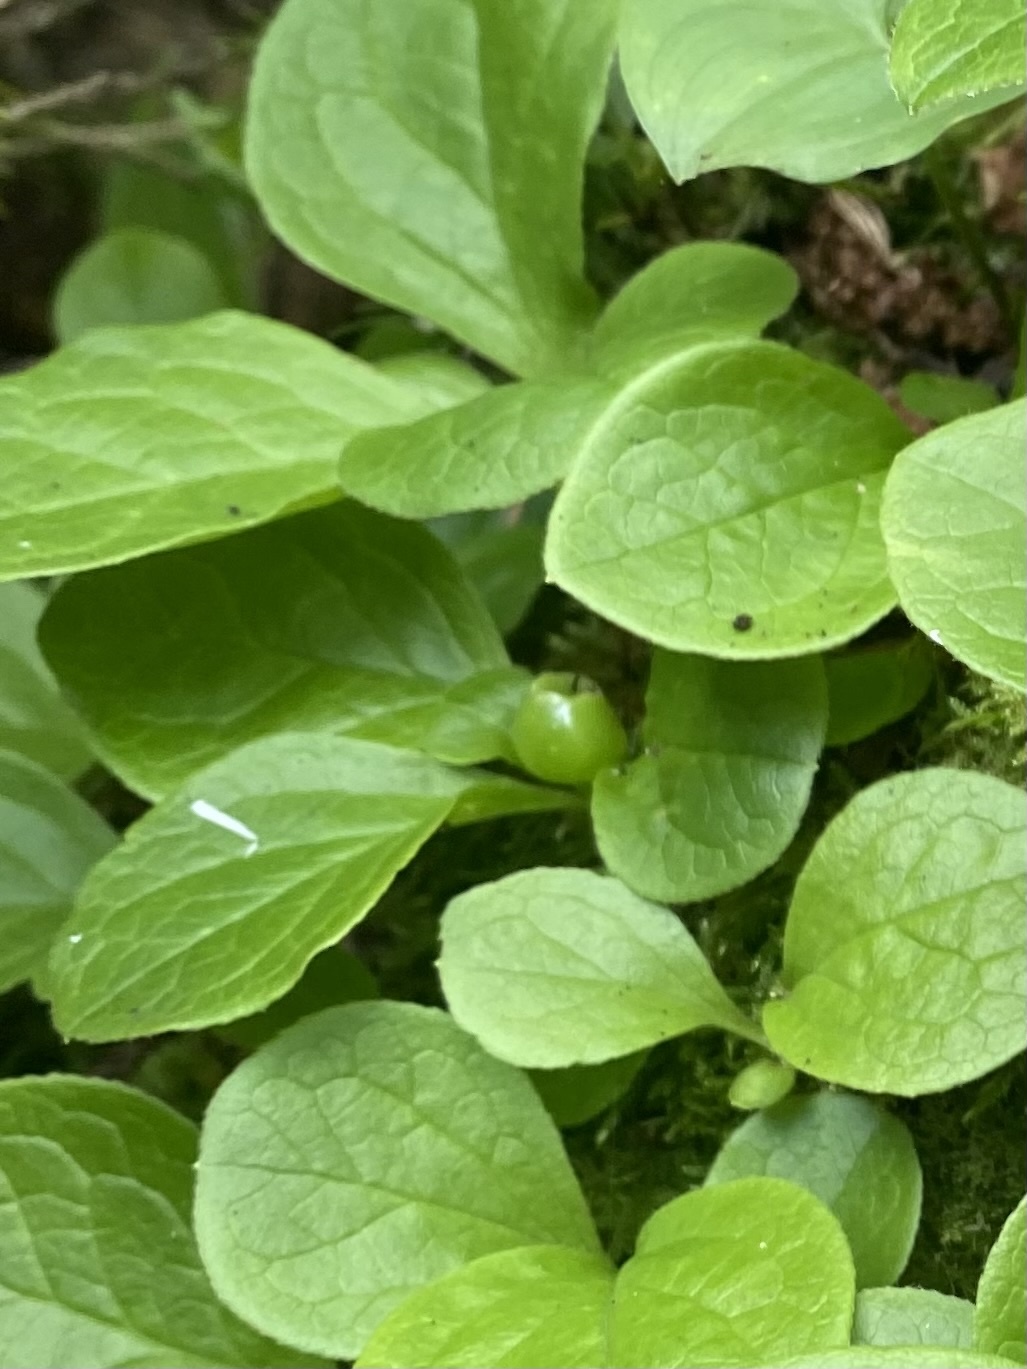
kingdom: Plantae
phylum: Tracheophyta
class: Magnoliopsida
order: Ericales
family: Ericaceae
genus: Vaccinium
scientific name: Vaccinium praestans
